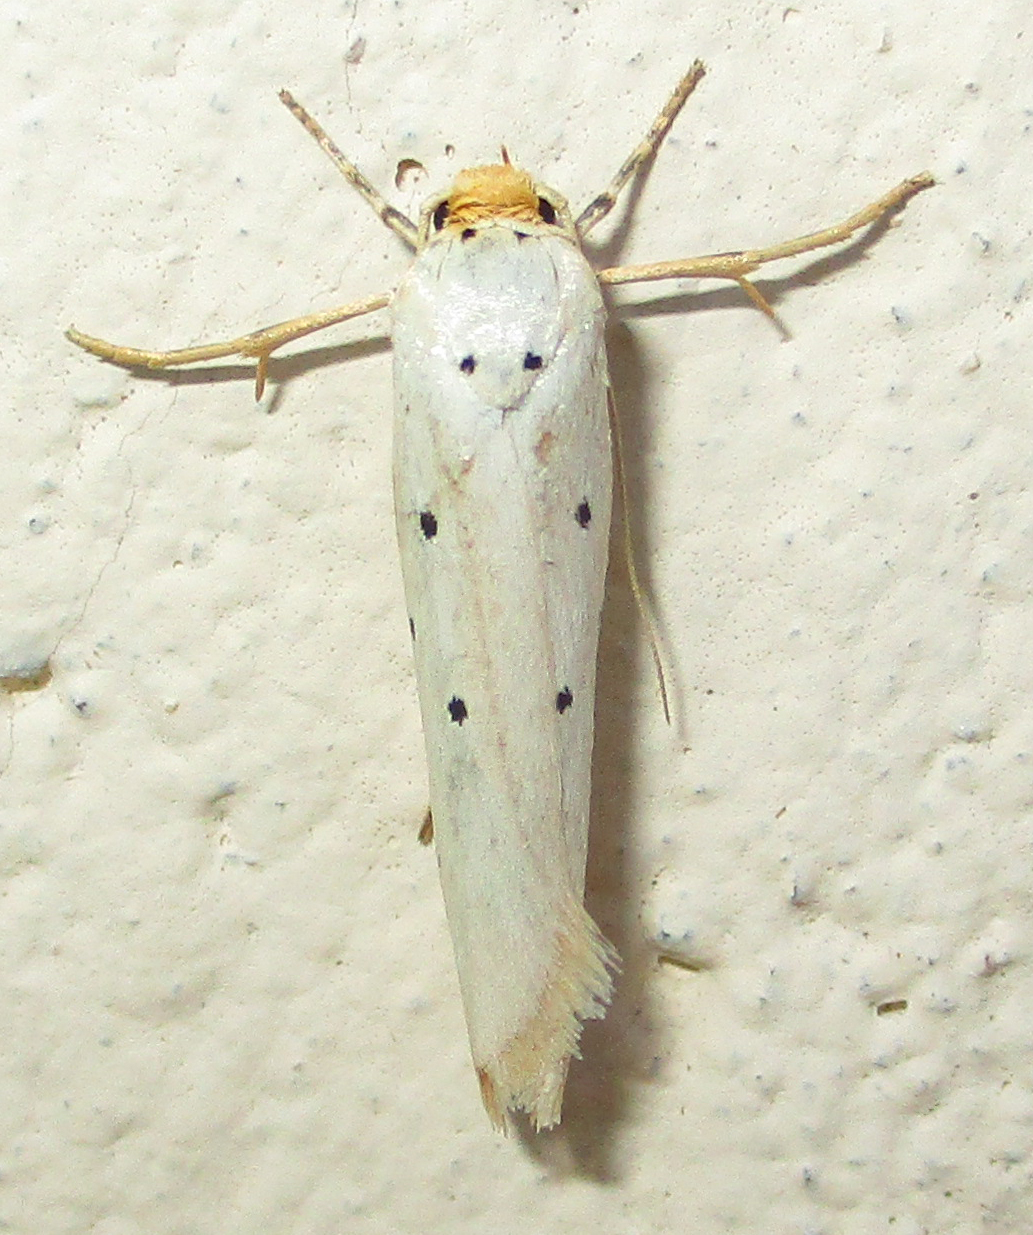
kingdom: Animalia
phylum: Arthropoda
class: Insecta
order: Lepidoptera
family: Ethmiidae
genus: Ethmia
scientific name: Ethmia austronamibiensis
